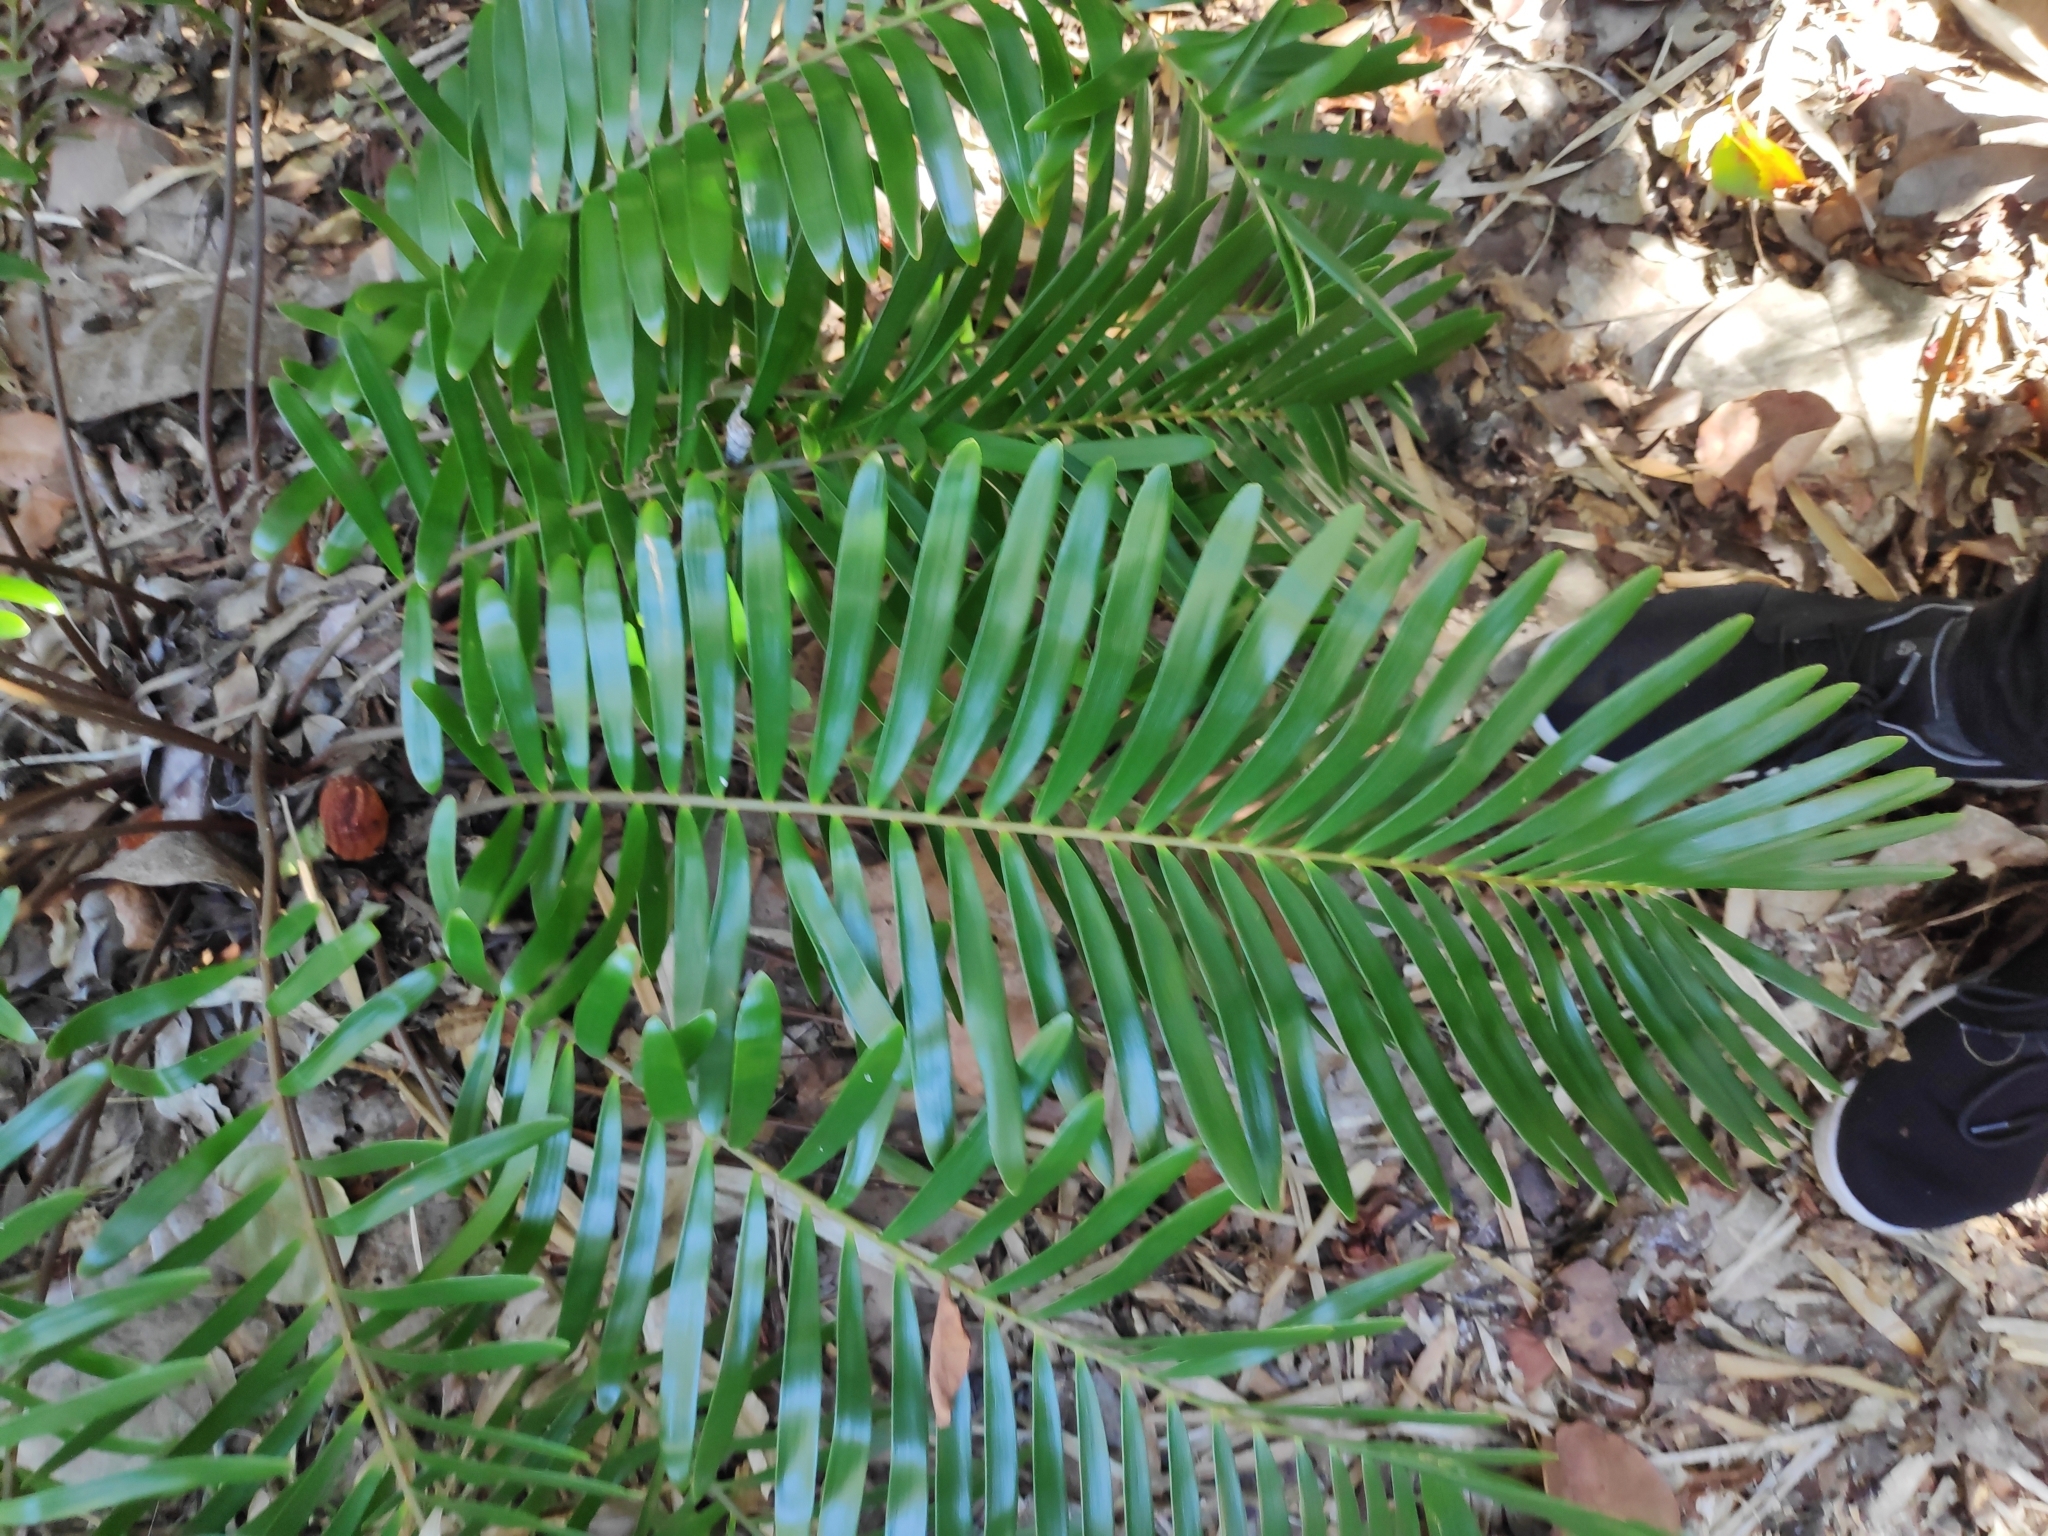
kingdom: Plantae
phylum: Tracheophyta
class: Cycadopsida
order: Cycadales
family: Zamiaceae
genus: Zamia
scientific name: Zamia integrifolia
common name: Florida arrowroot
